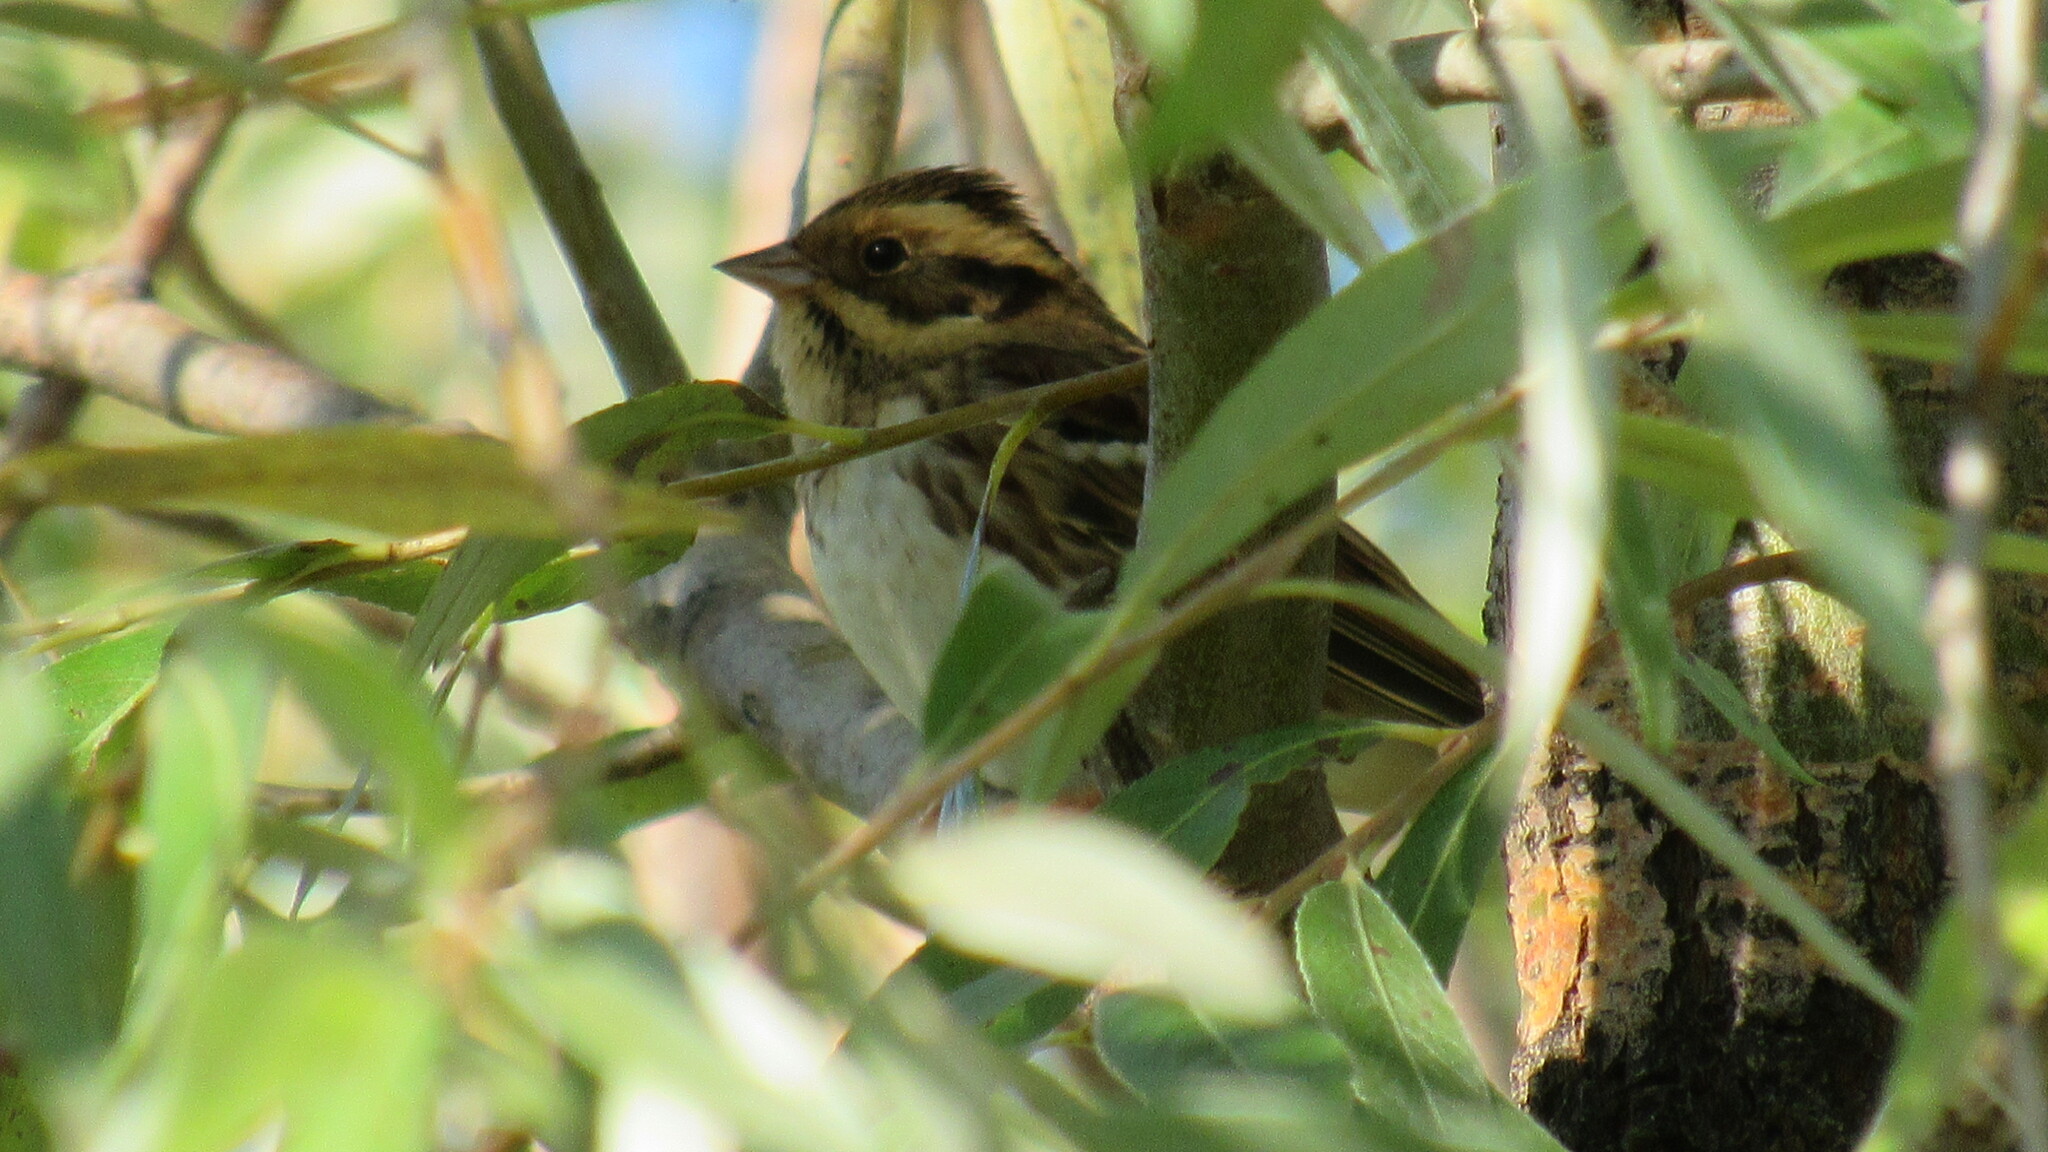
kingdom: Animalia
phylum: Chordata
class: Aves
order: Passeriformes
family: Emberizidae
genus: Emberiza
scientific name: Emberiza rustica
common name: Rustic bunting
